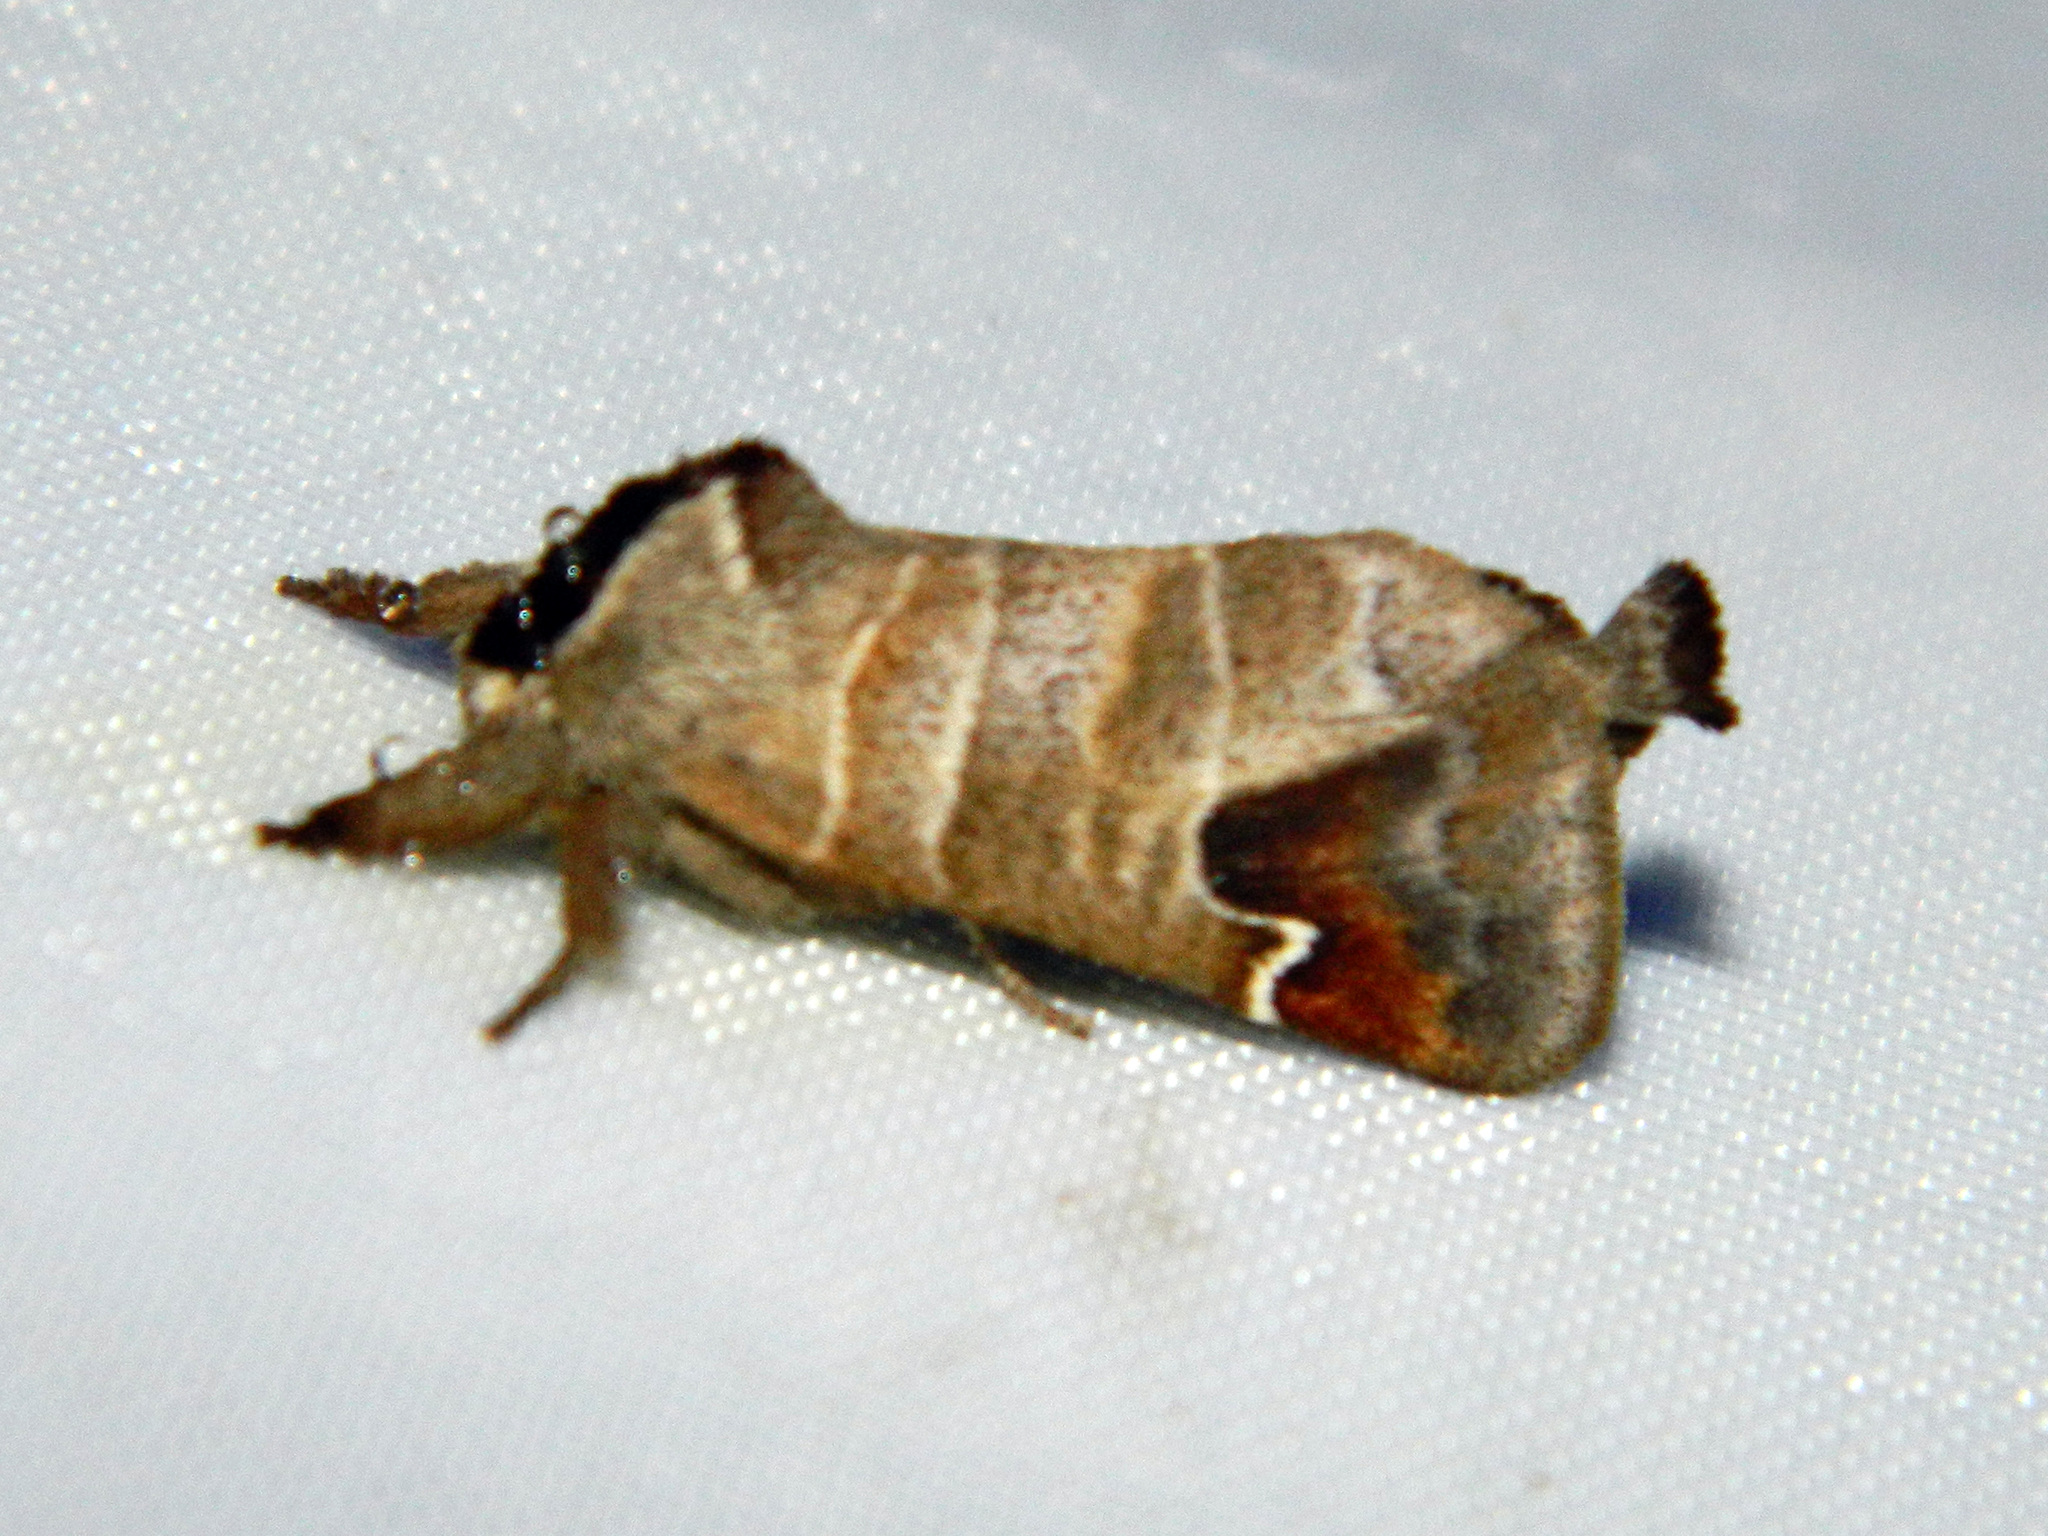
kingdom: Animalia
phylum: Arthropoda
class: Insecta
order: Lepidoptera
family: Notodontidae
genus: Clostera
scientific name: Clostera albosigma
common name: Sigmoid prominent
